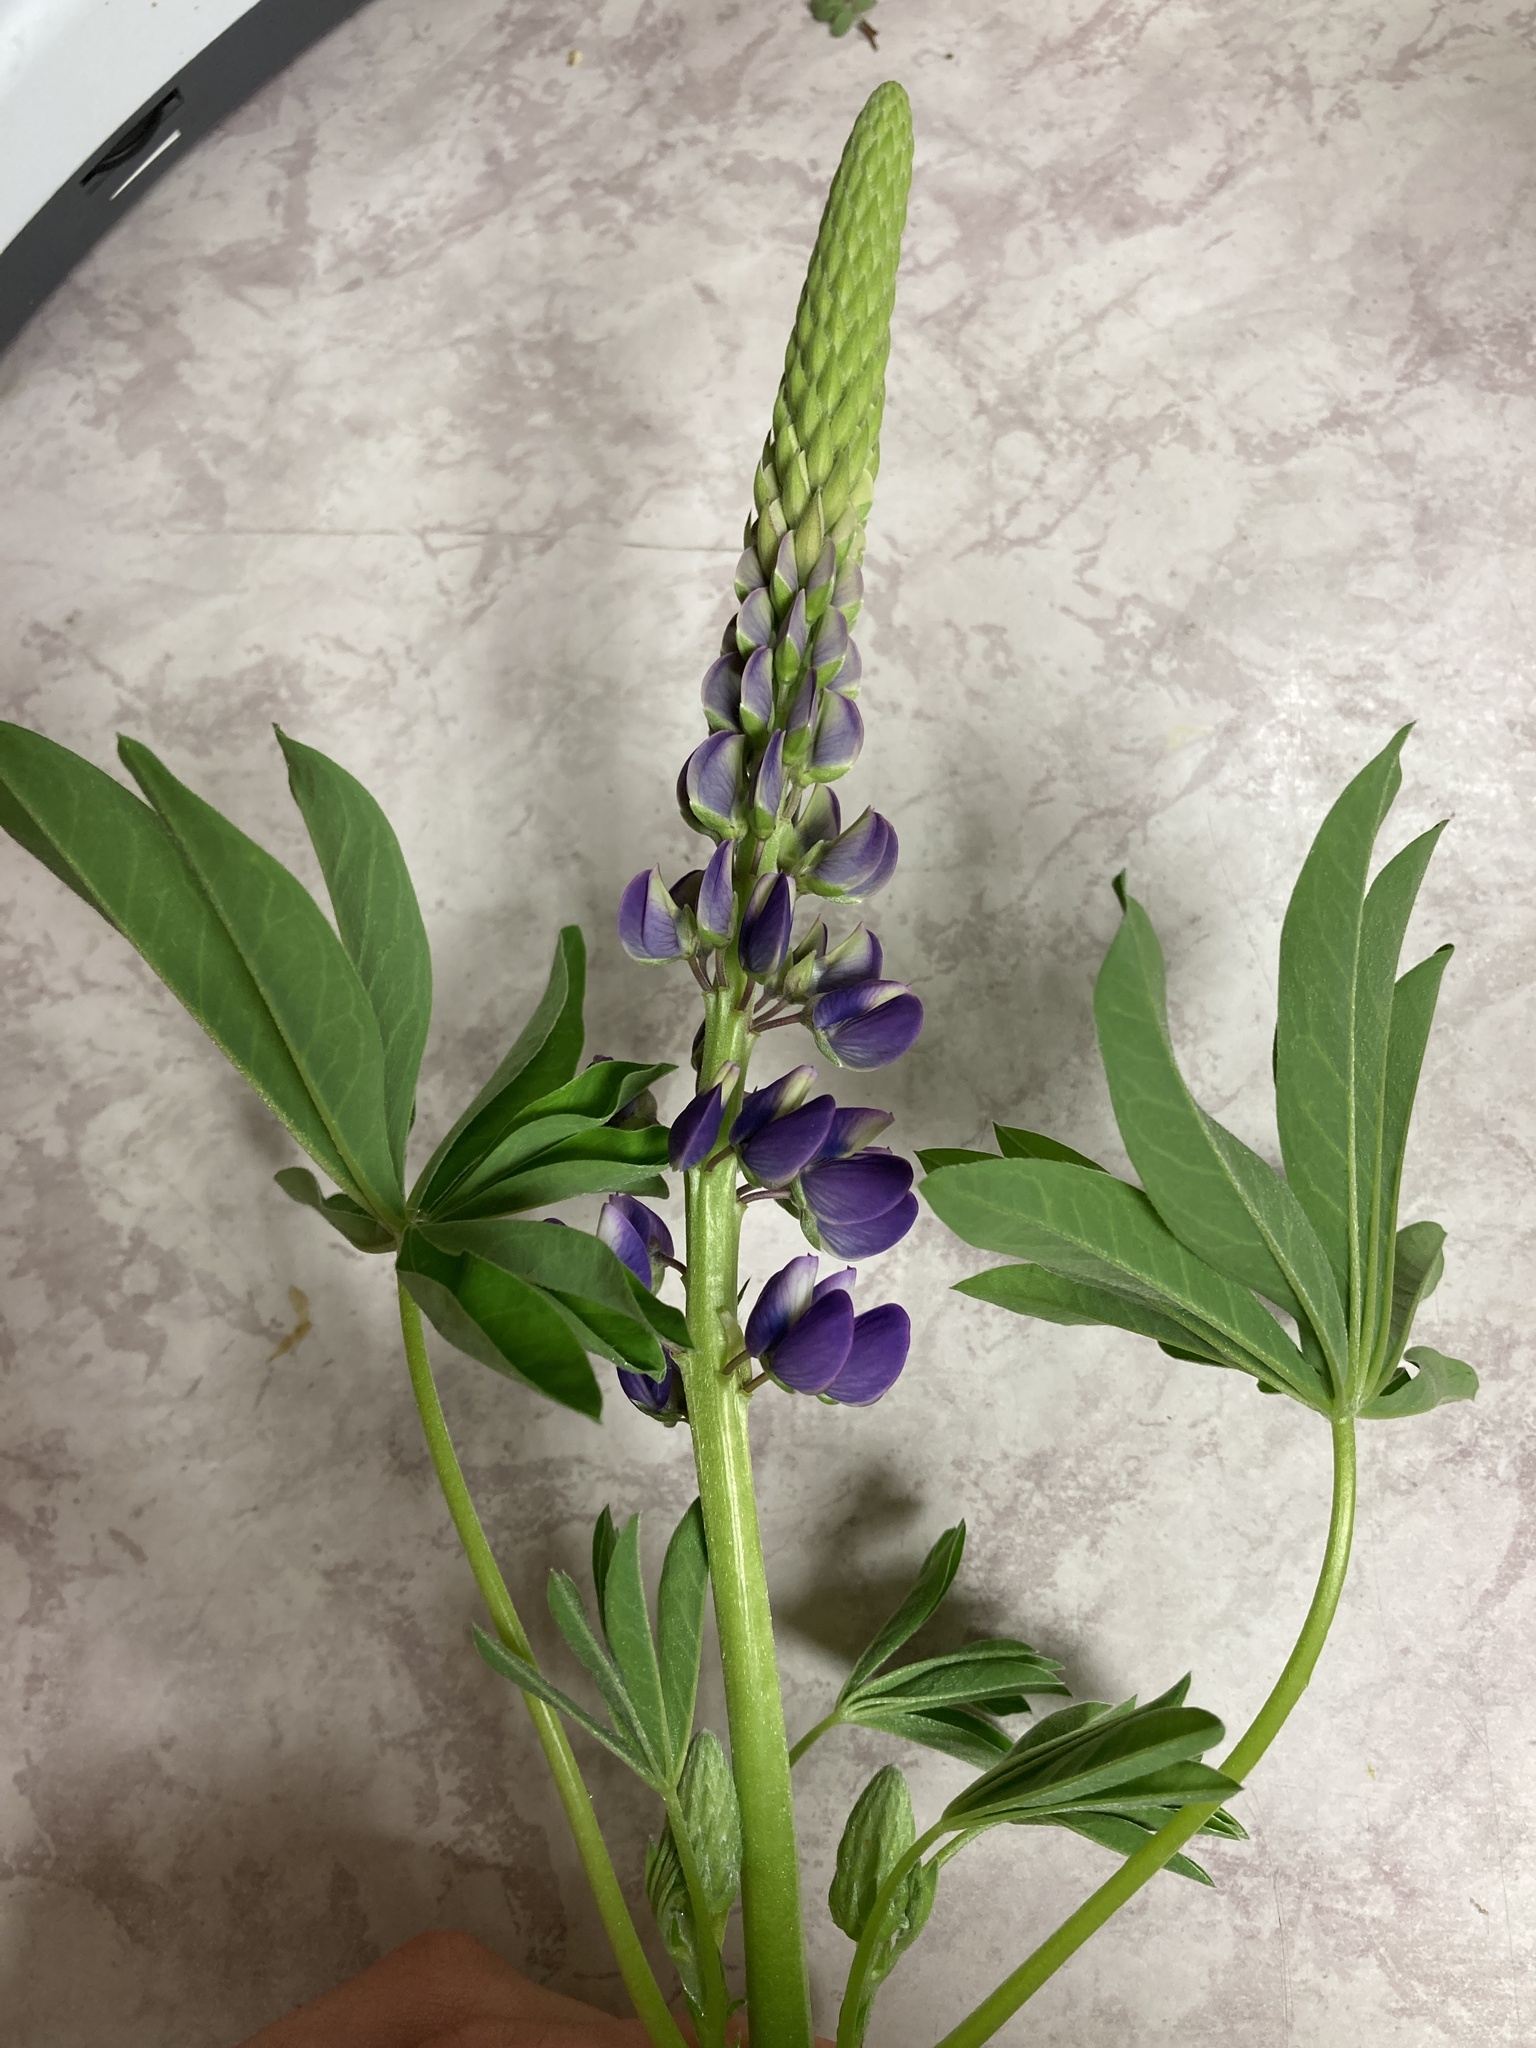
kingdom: Plantae
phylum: Tracheophyta
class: Magnoliopsida
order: Fabales
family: Fabaceae
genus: Lupinus
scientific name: Lupinus polyphyllus
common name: Garden lupin
